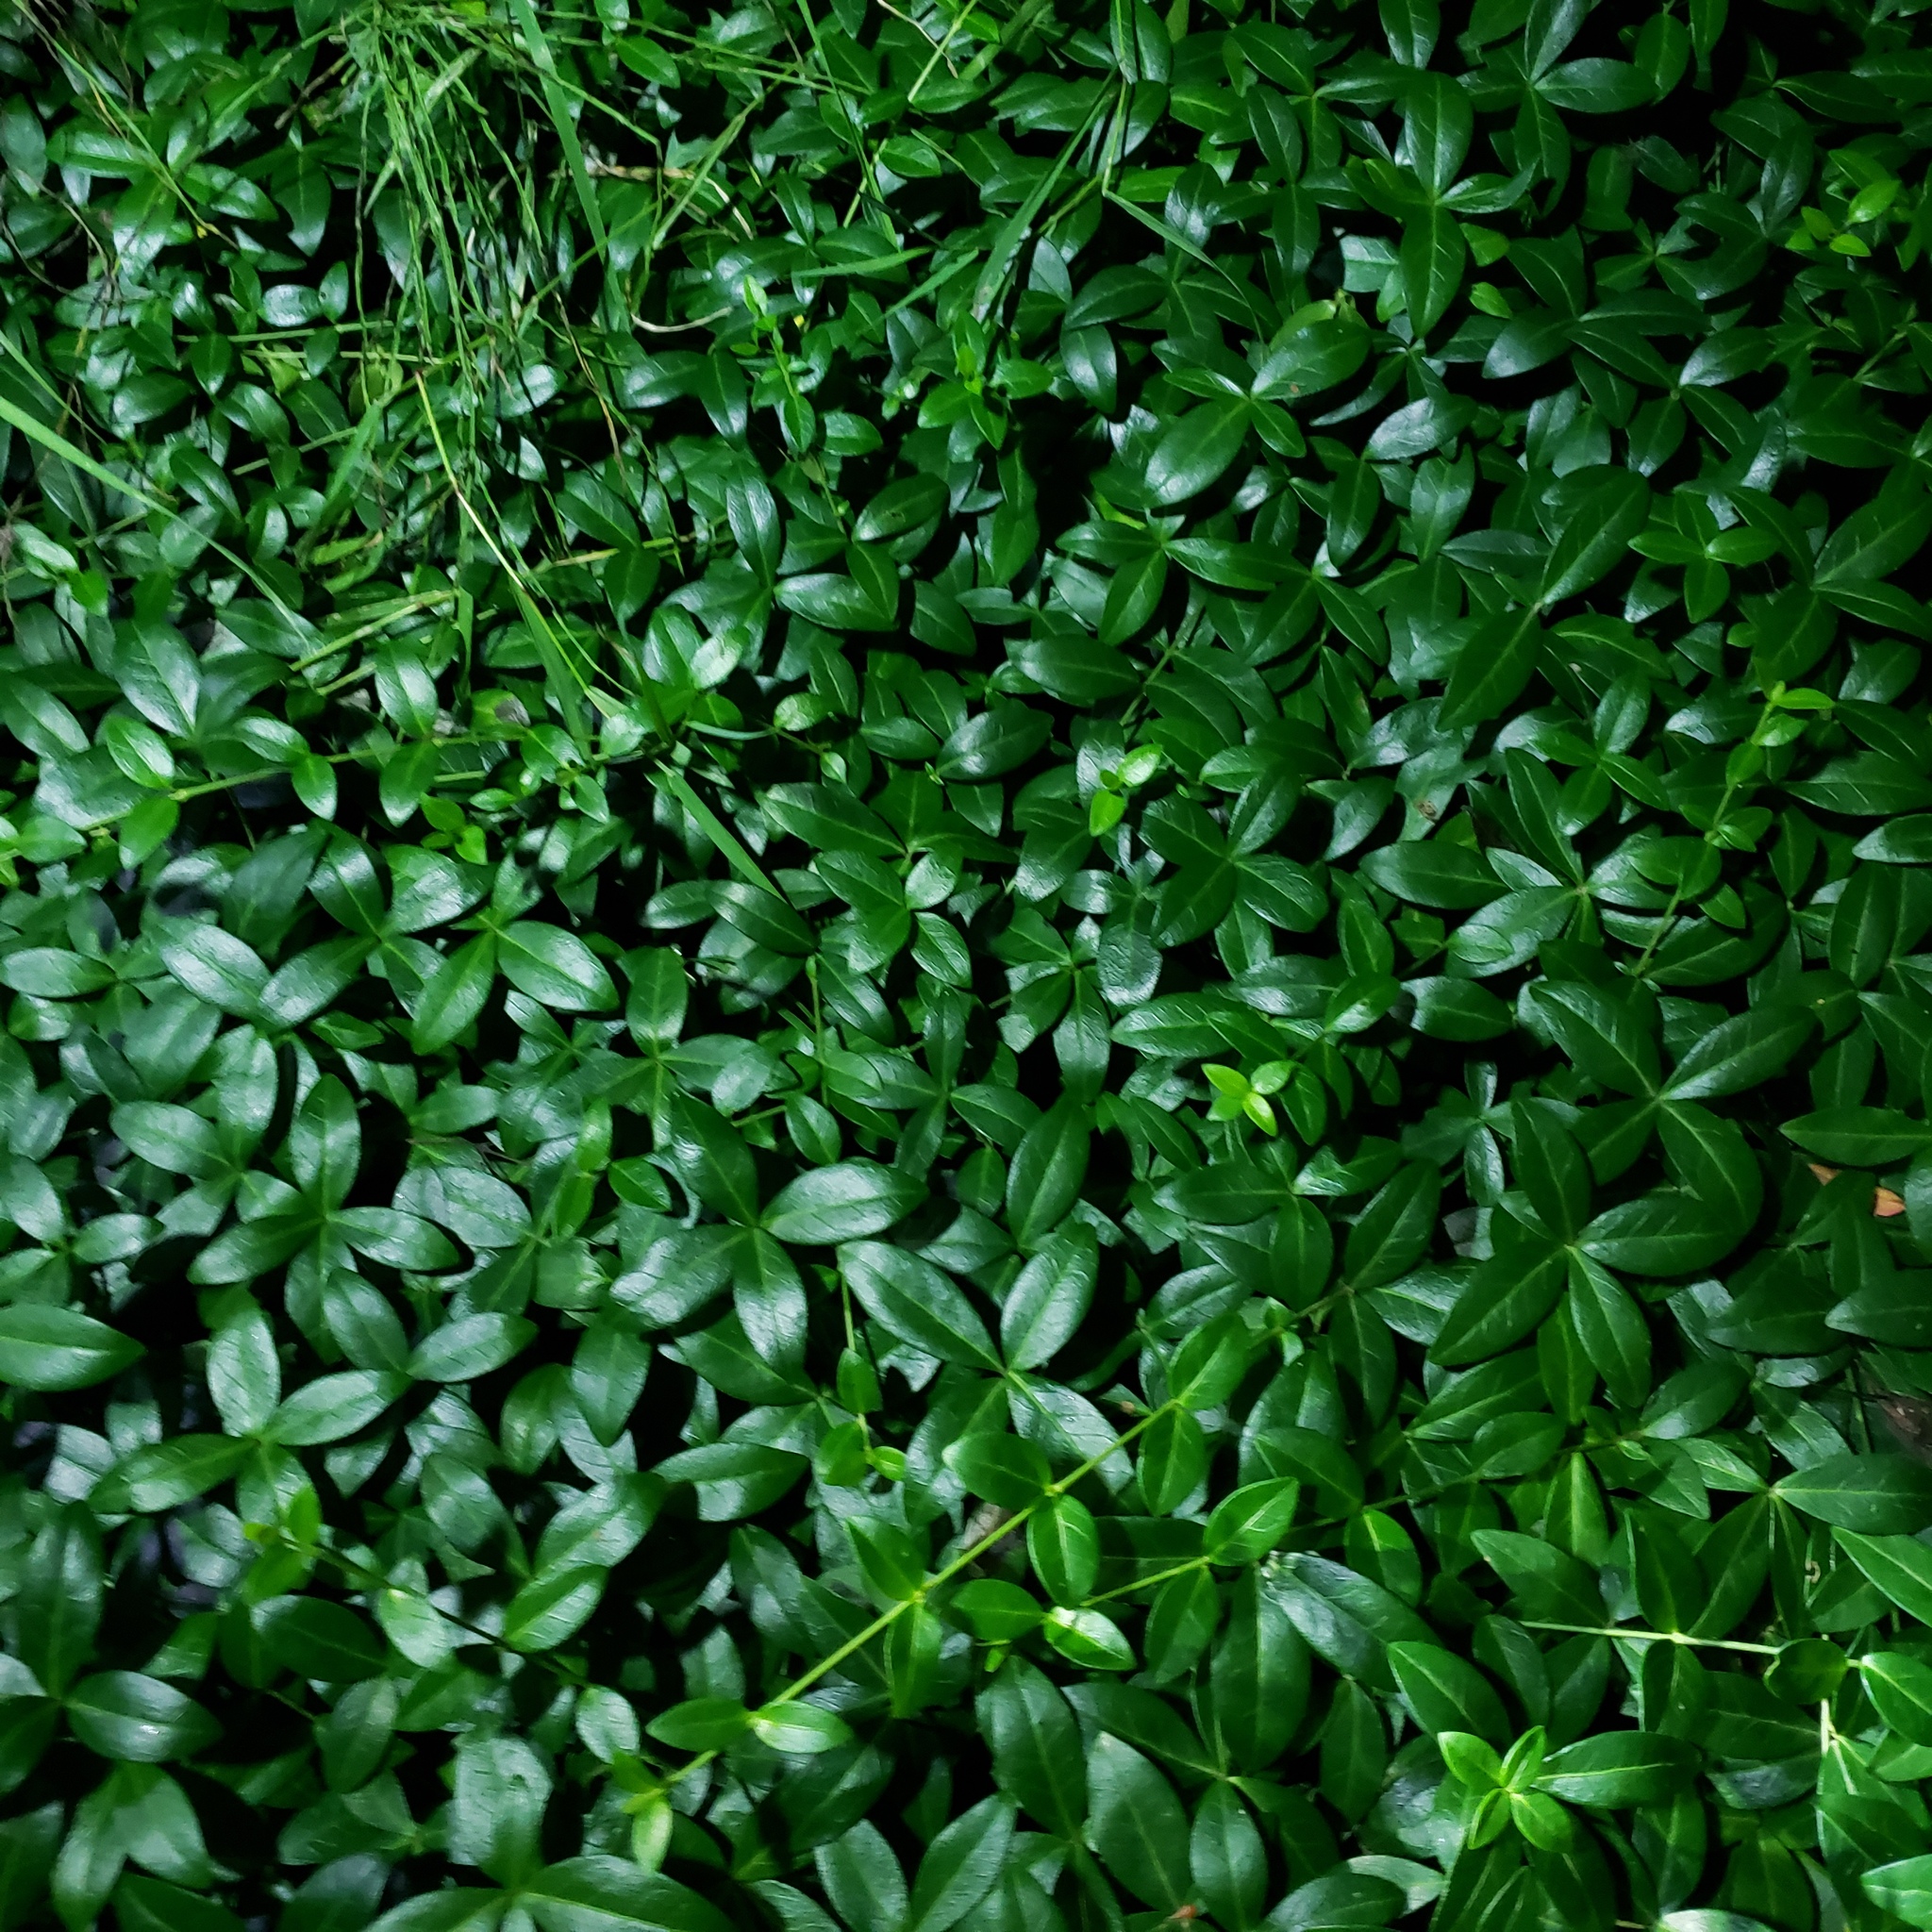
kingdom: Plantae
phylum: Tracheophyta
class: Magnoliopsida
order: Gentianales
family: Apocynaceae
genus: Vinca
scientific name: Vinca minor
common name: Lesser periwinkle
